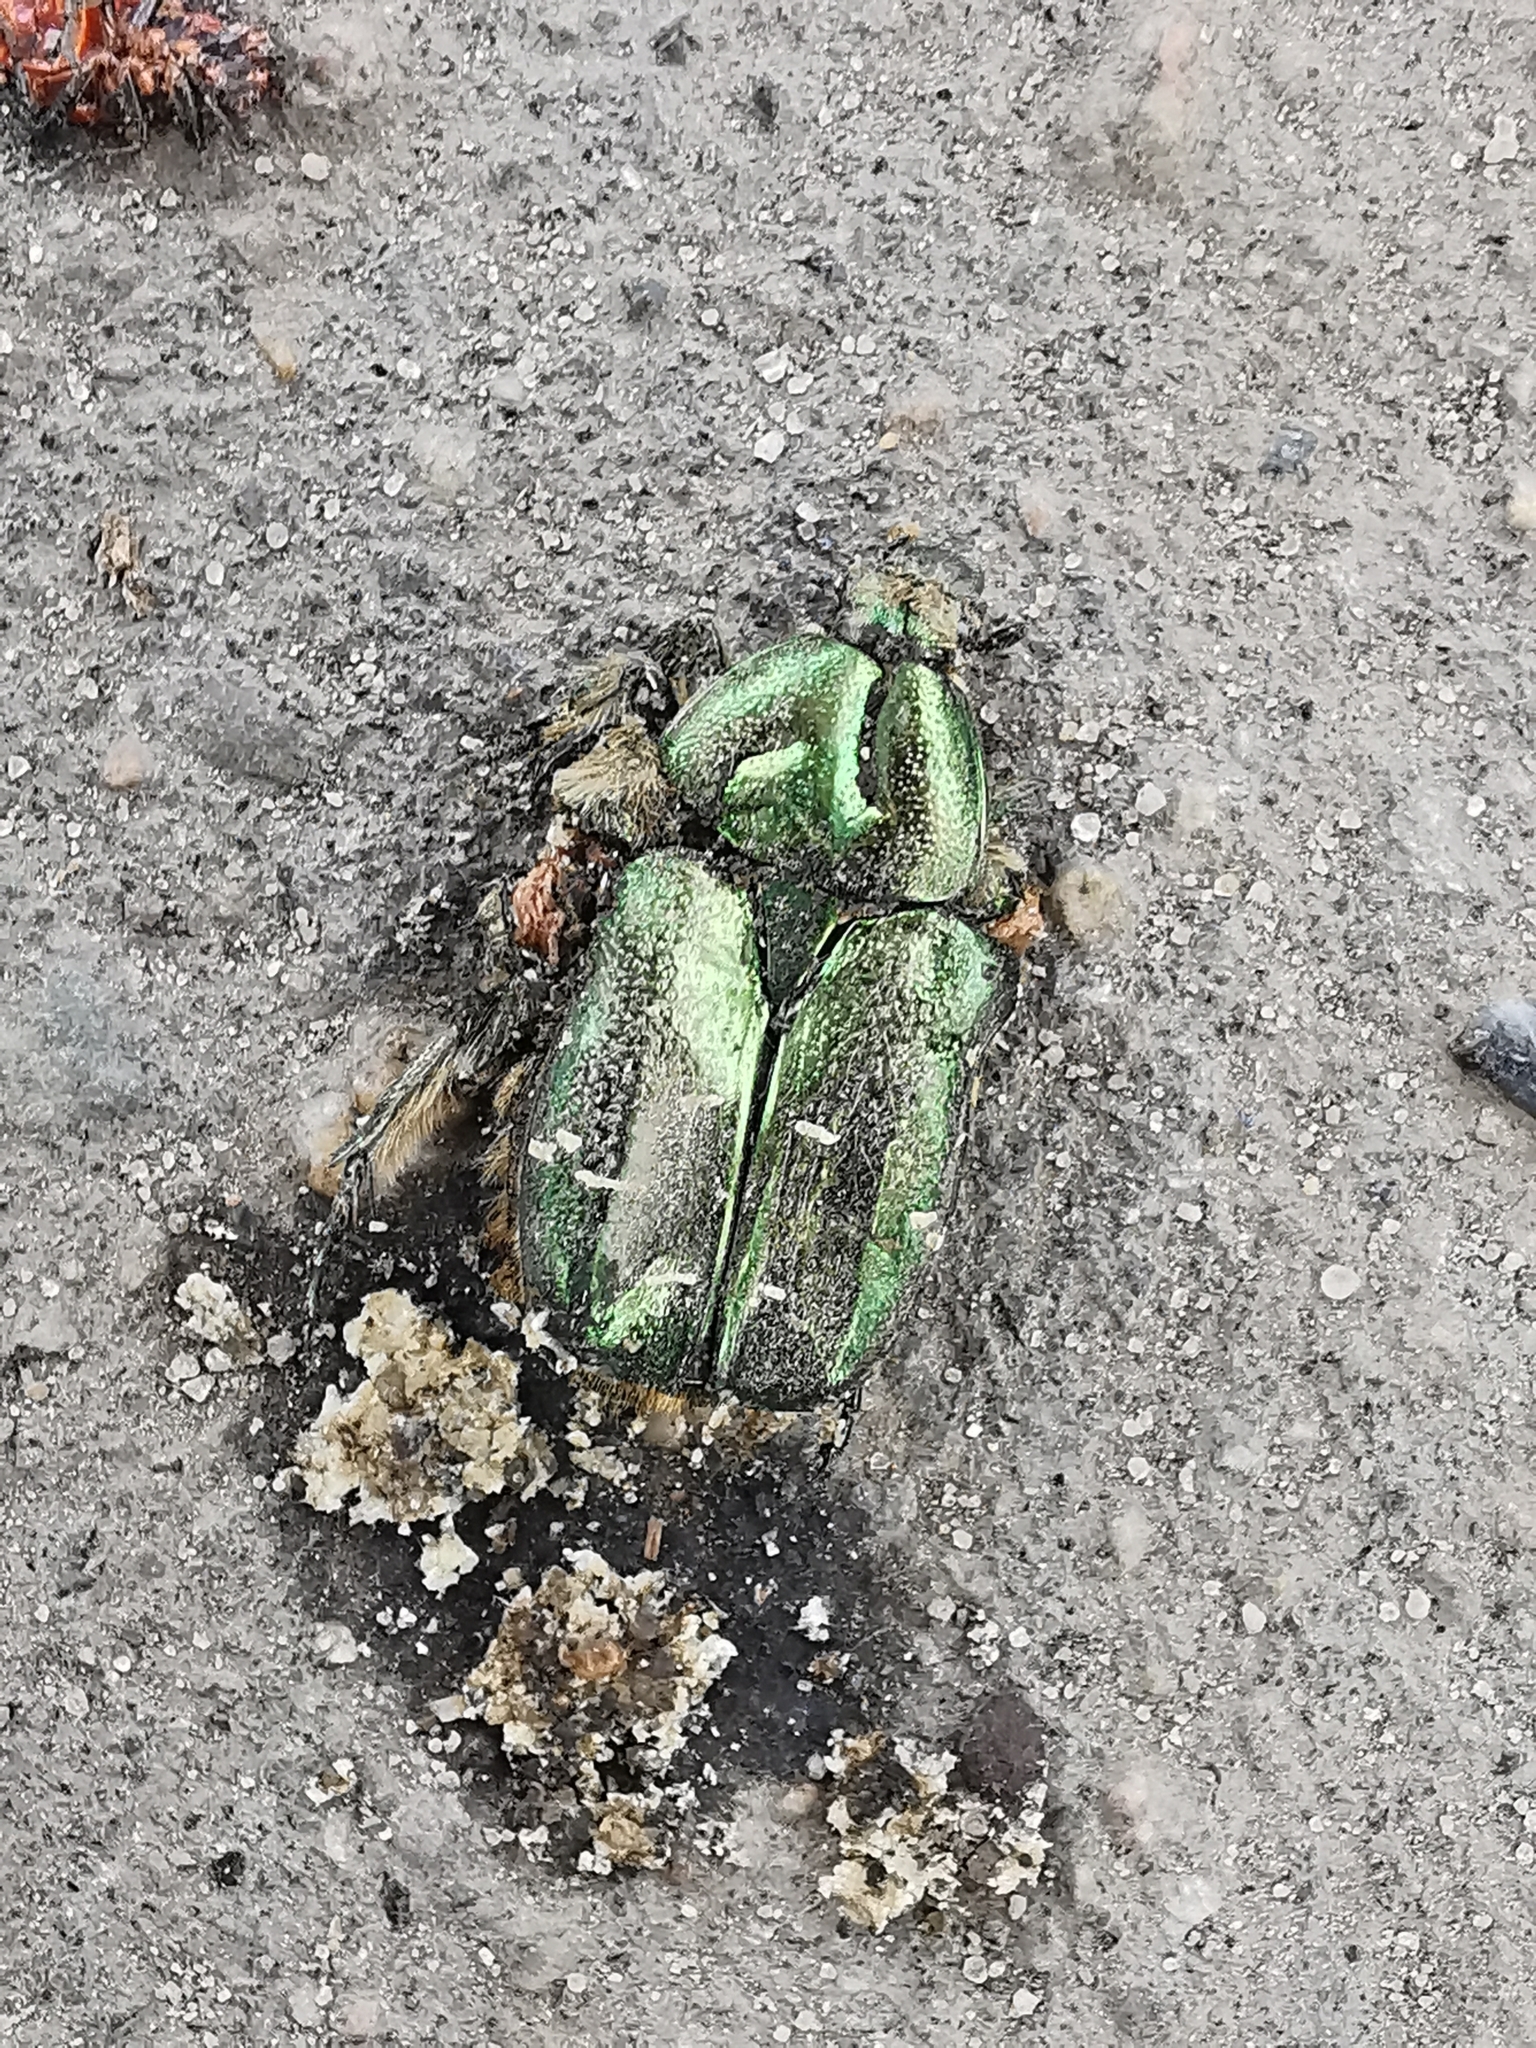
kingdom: Animalia
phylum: Arthropoda
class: Insecta
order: Coleoptera
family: Scarabaeidae
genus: Cetonia
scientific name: Cetonia aurata
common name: Rose chafer
